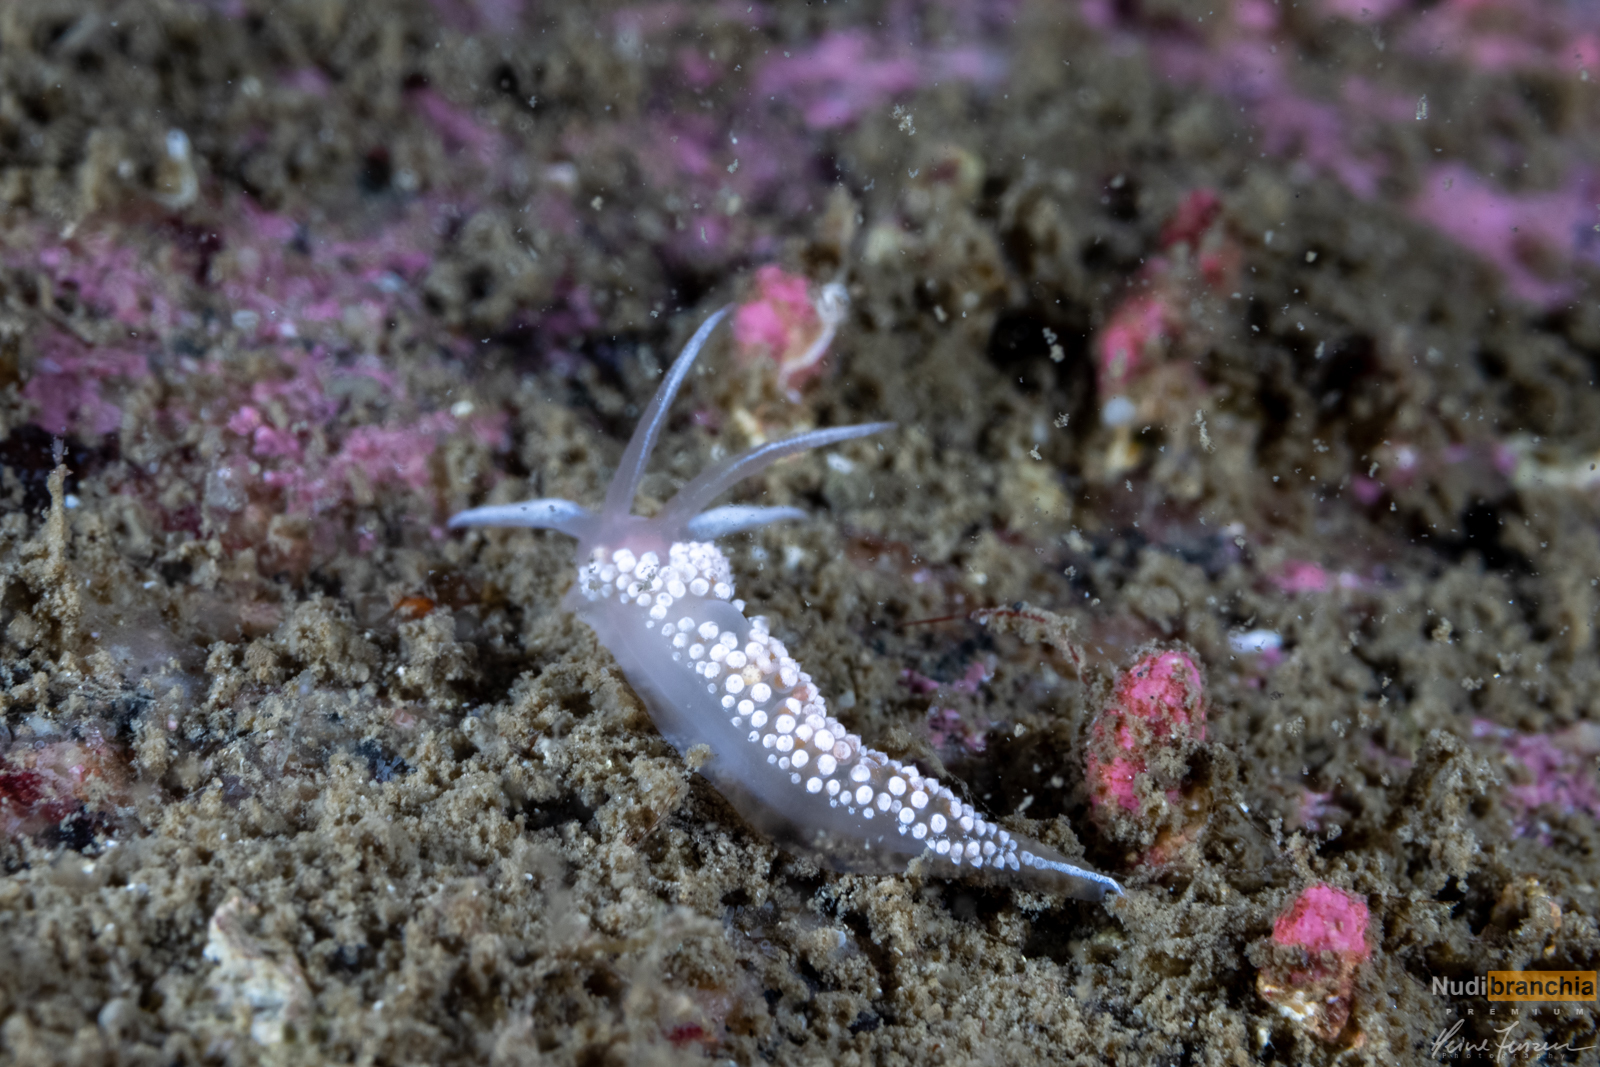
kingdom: Animalia
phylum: Mollusca
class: Gastropoda
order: Nudibranchia
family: Coryphellidae
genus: Coryphella
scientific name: Coryphella verrucosa
